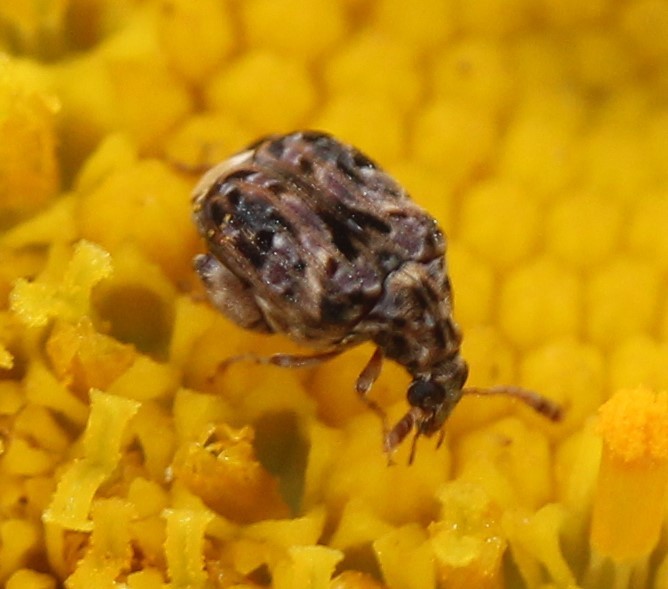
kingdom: Animalia
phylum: Arthropoda
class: Insecta
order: Coleoptera
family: Chrysomelidae
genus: Gibbobruchus
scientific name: Gibbobruchus mimus
